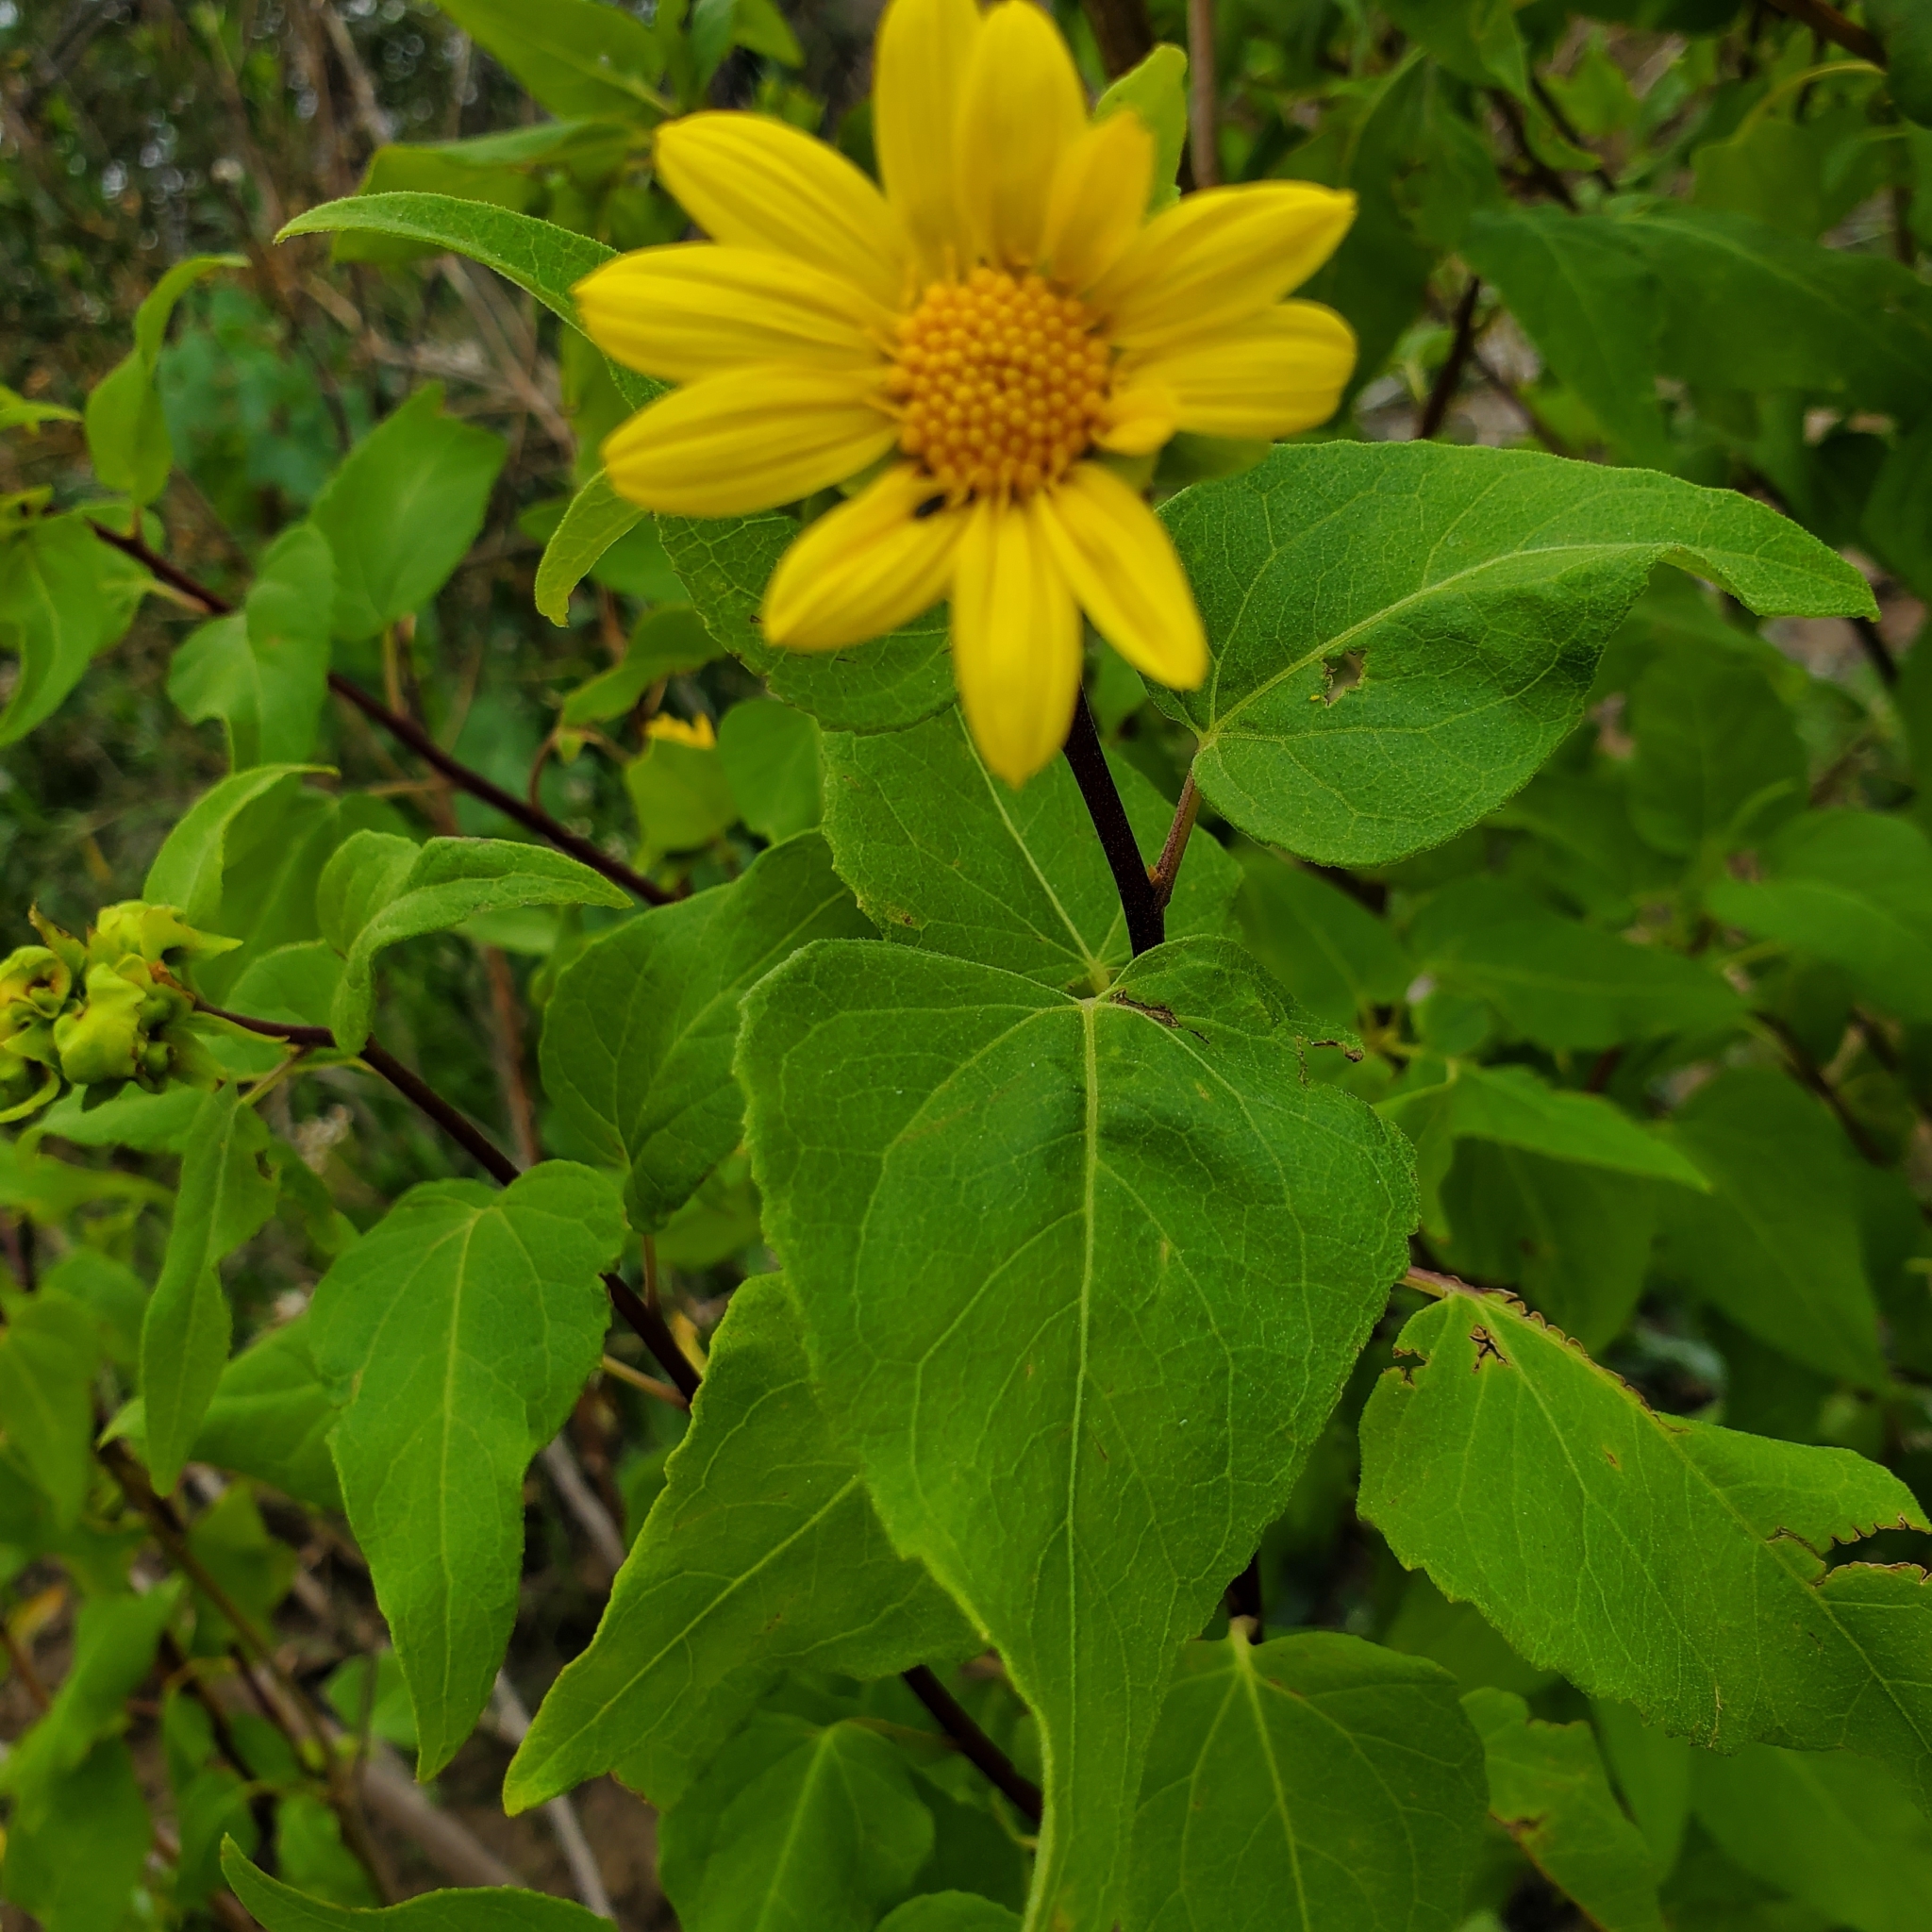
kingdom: Plantae
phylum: Tracheophyta
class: Magnoliopsida
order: Asterales
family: Asteraceae
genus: Venegasia
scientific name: Venegasia carpesioides
